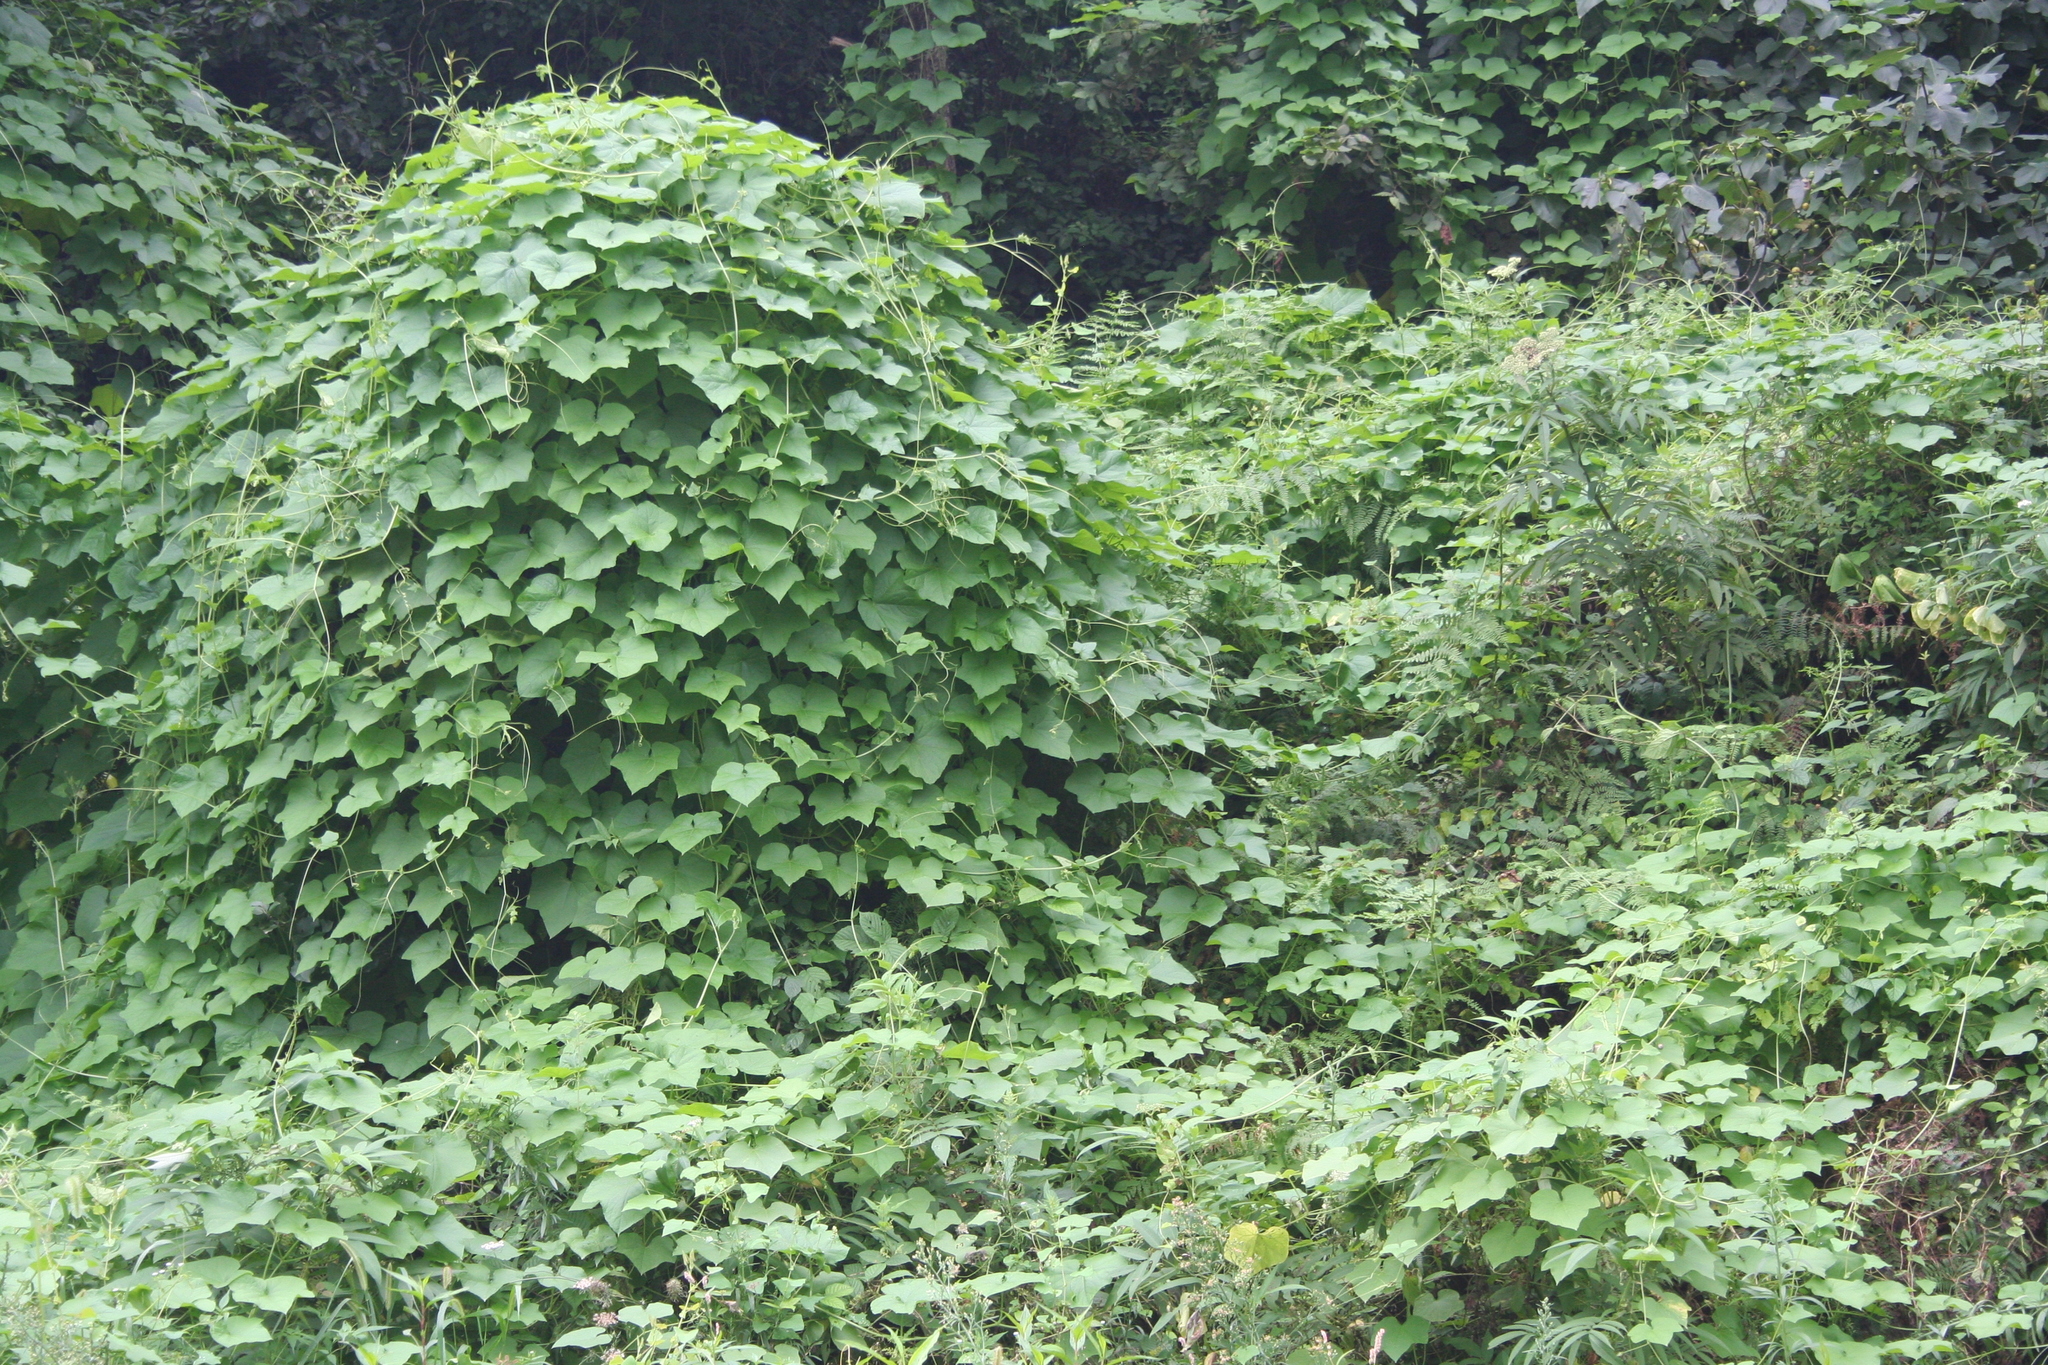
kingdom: Plantae
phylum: Tracheophyta
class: Magnoliopsida
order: Cucurbitales
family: Cucurbitaceae
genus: Sicyos
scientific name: Sicyos angulatus
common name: Angled burr cucumber
